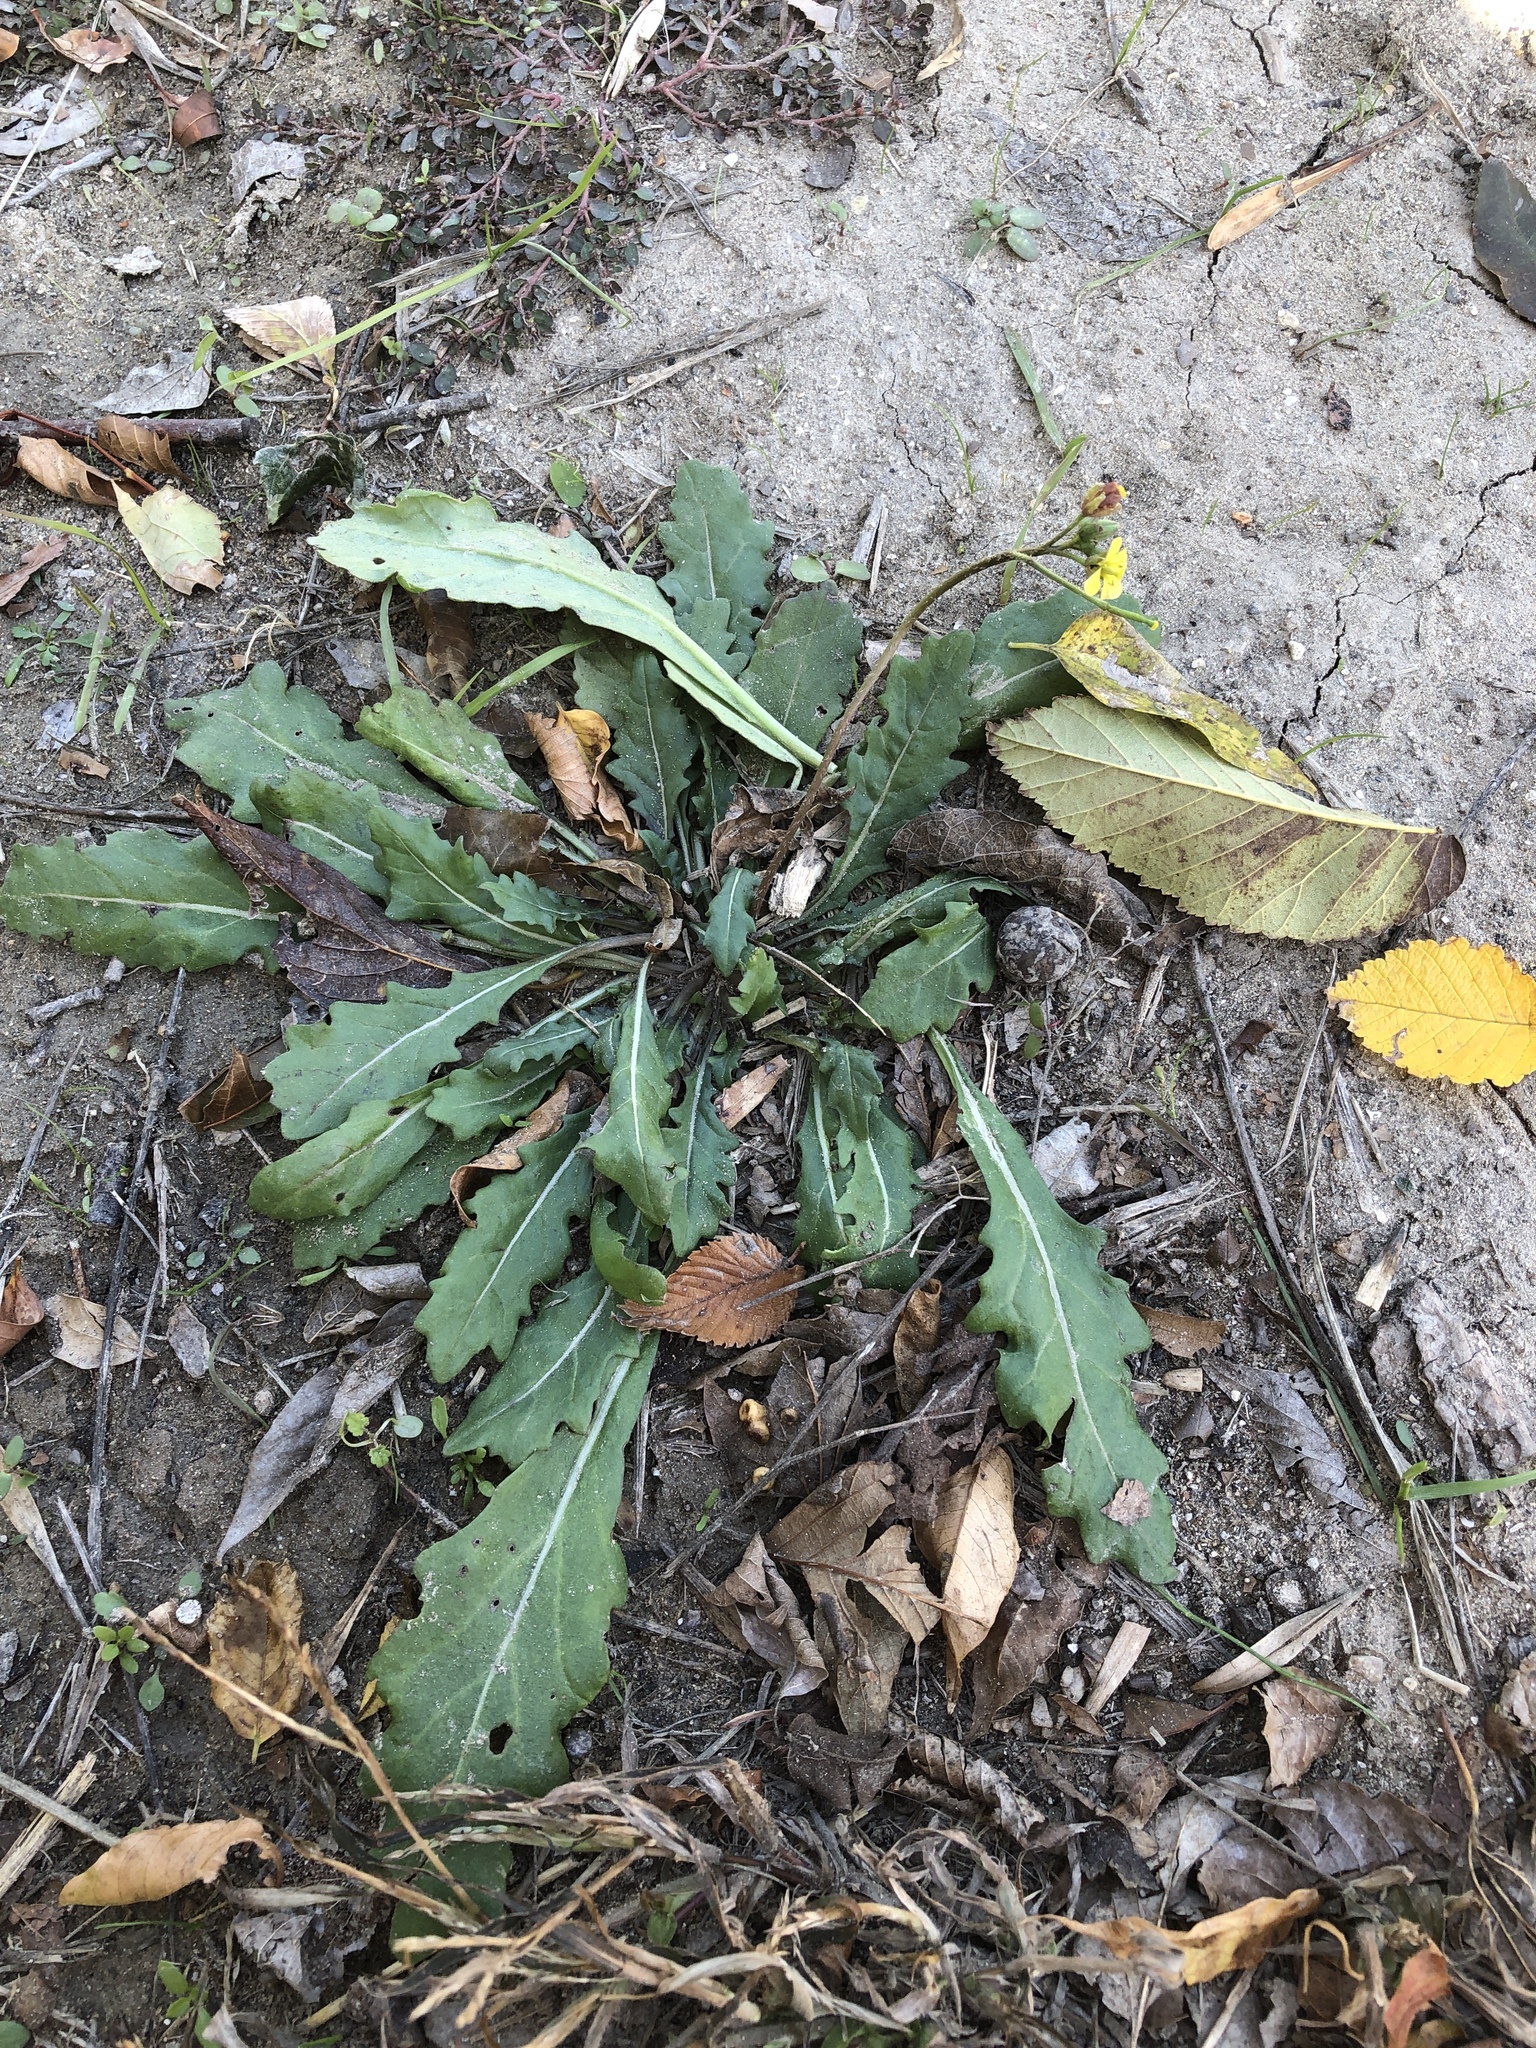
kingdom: Plantae
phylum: Tracheophyta
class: Magnoliopsida
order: Brassicales
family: Brassicaceae
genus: Diplotaxis
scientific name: Diplotaxis muralis
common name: Annual wall-rocket
